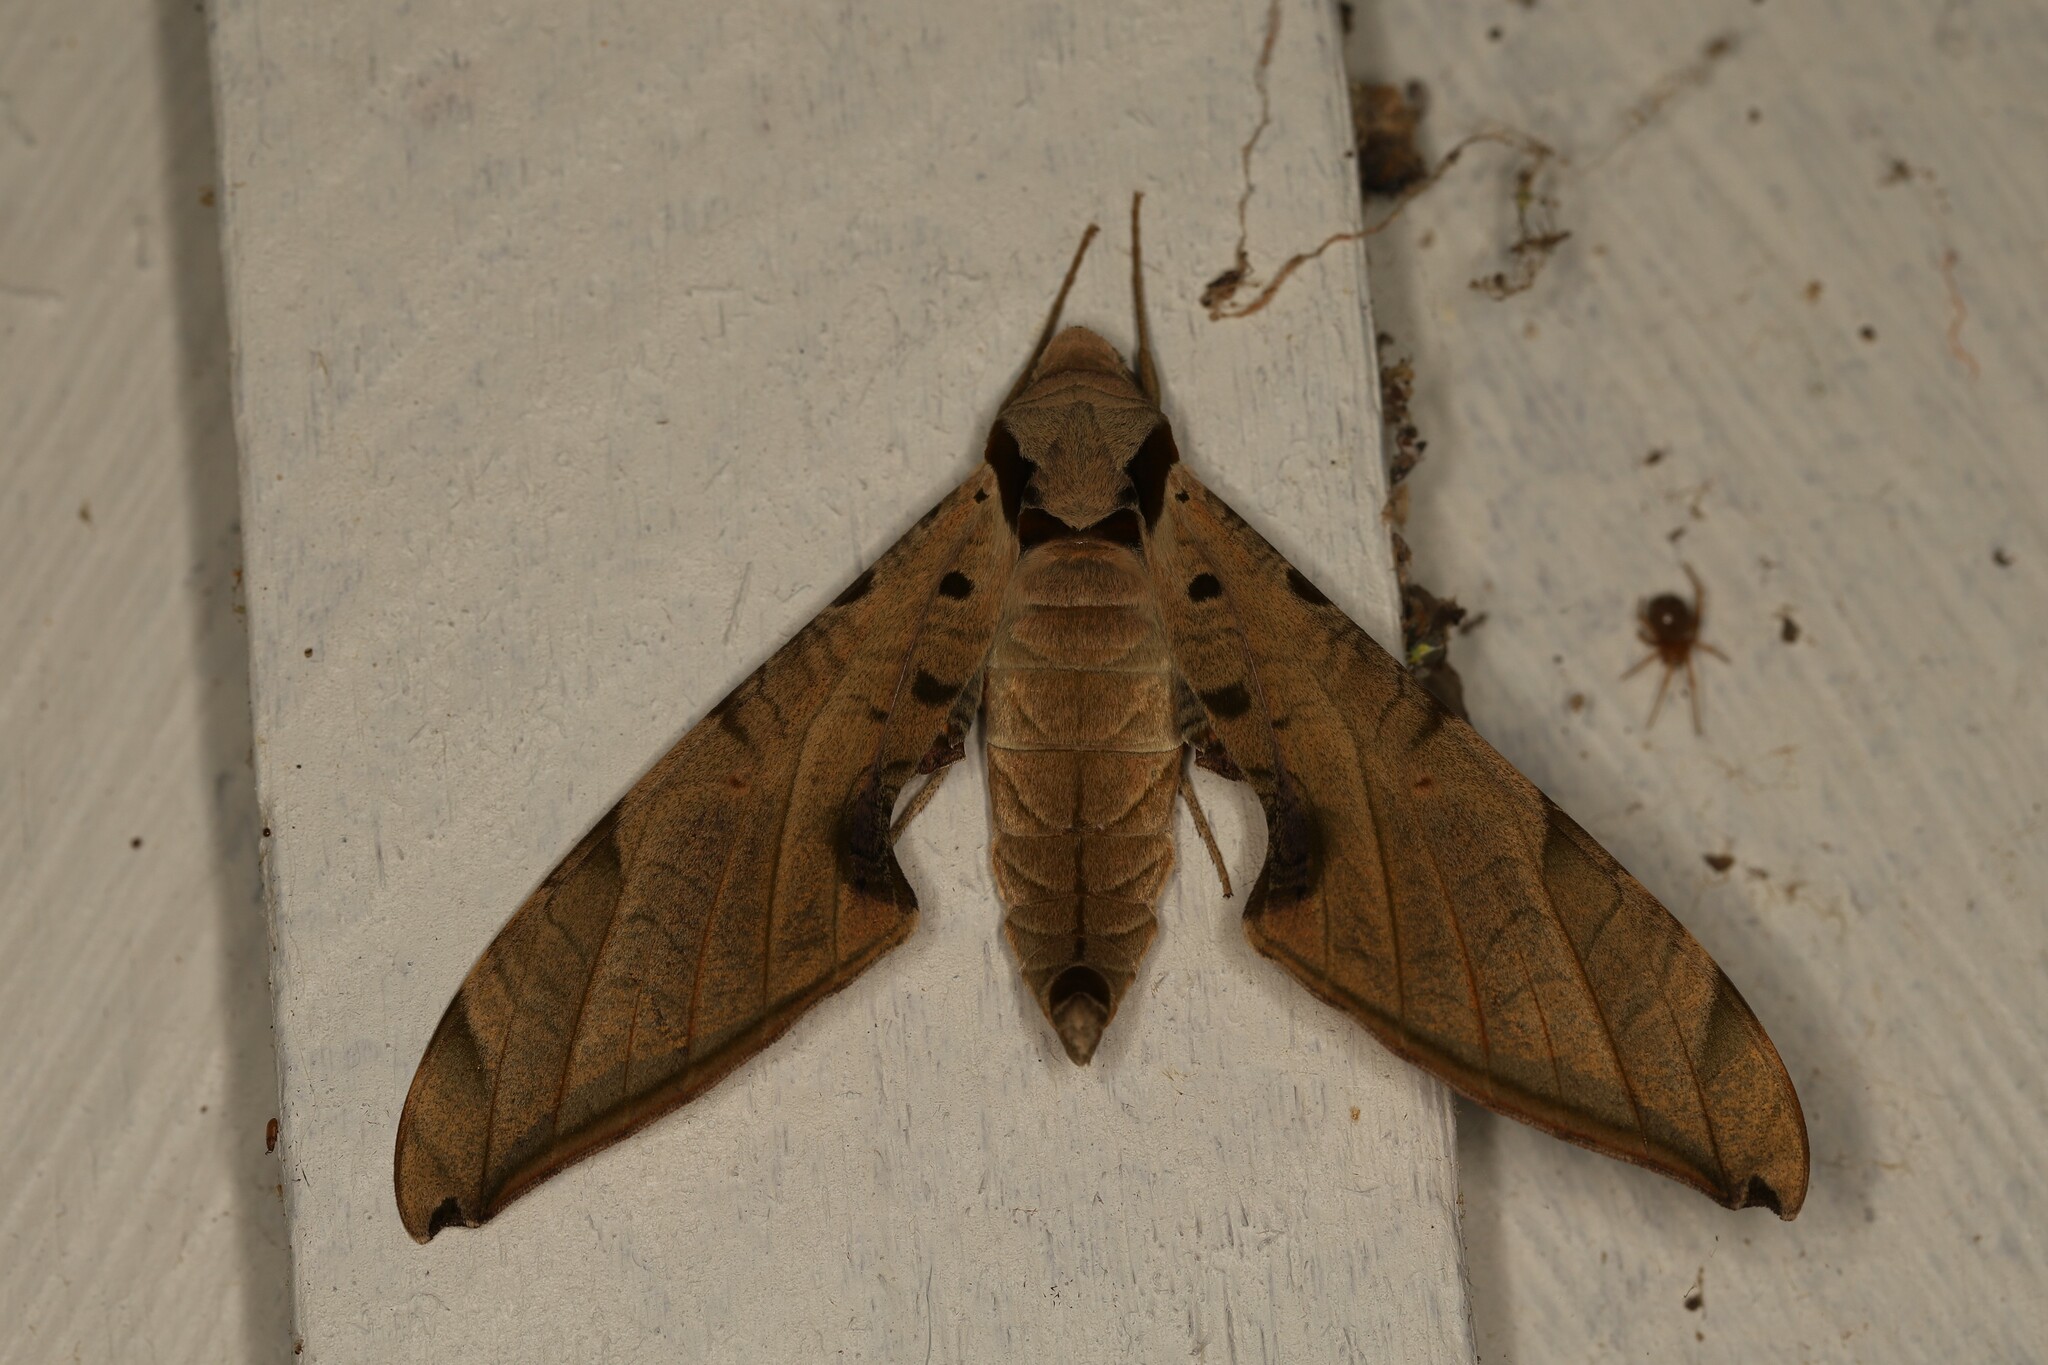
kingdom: Animalia
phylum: Arthropoda
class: Insecta
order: Lepidoptera
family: Sphingidae
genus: Protambulyx
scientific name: Protambulyx strigilis
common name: Streaked sphinx
